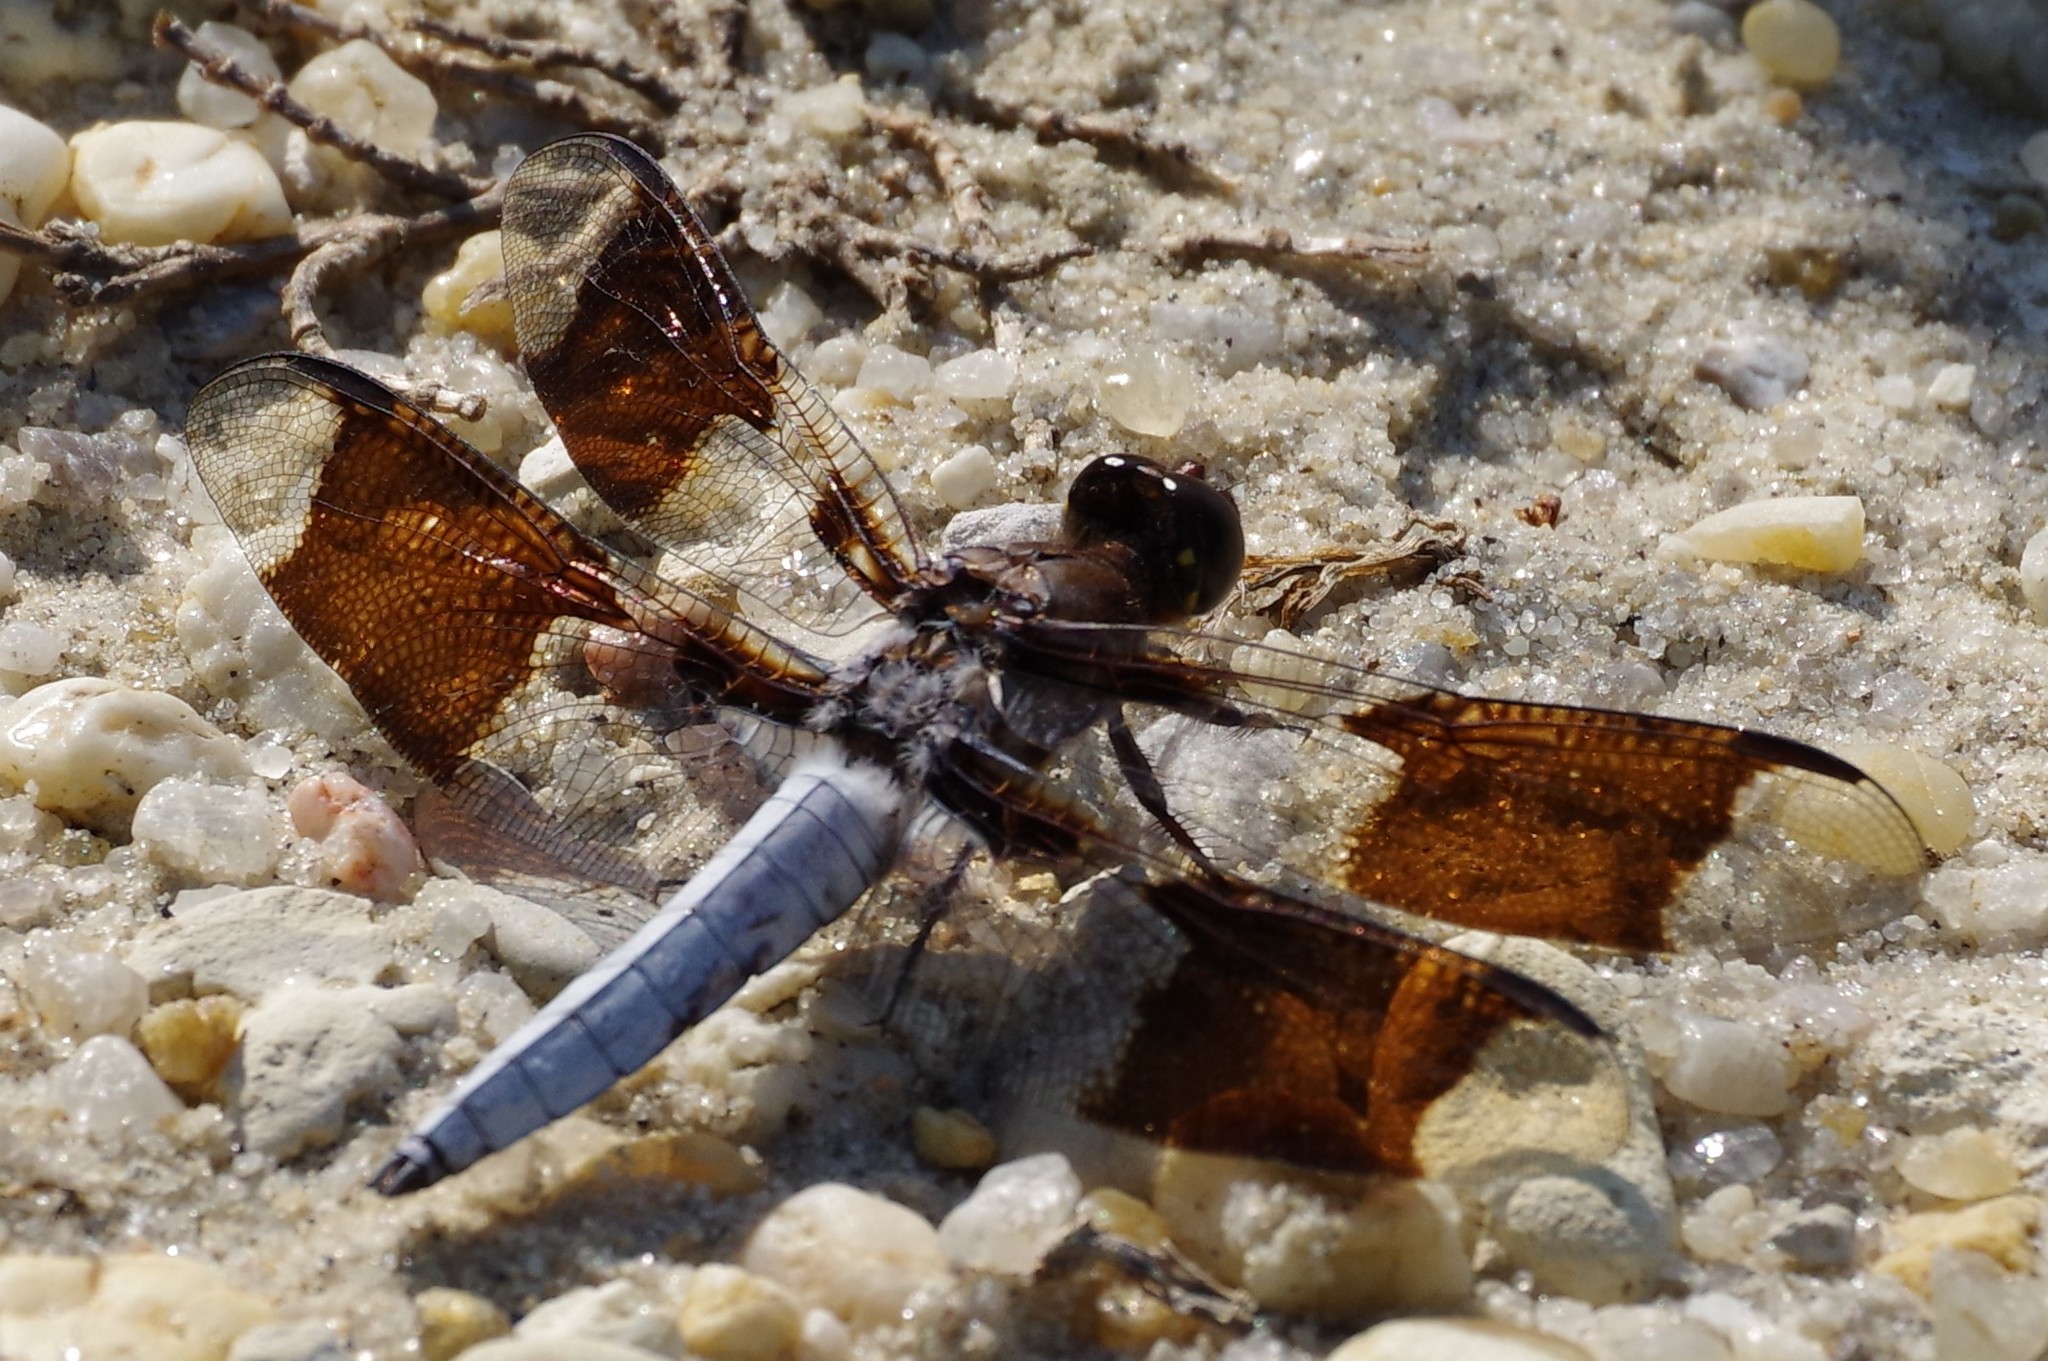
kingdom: Animalia
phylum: Arthropoda
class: Insecta
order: Odonata
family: Libellulidae
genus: Plathemis
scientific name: Plathemis lydia
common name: Common whitetail
